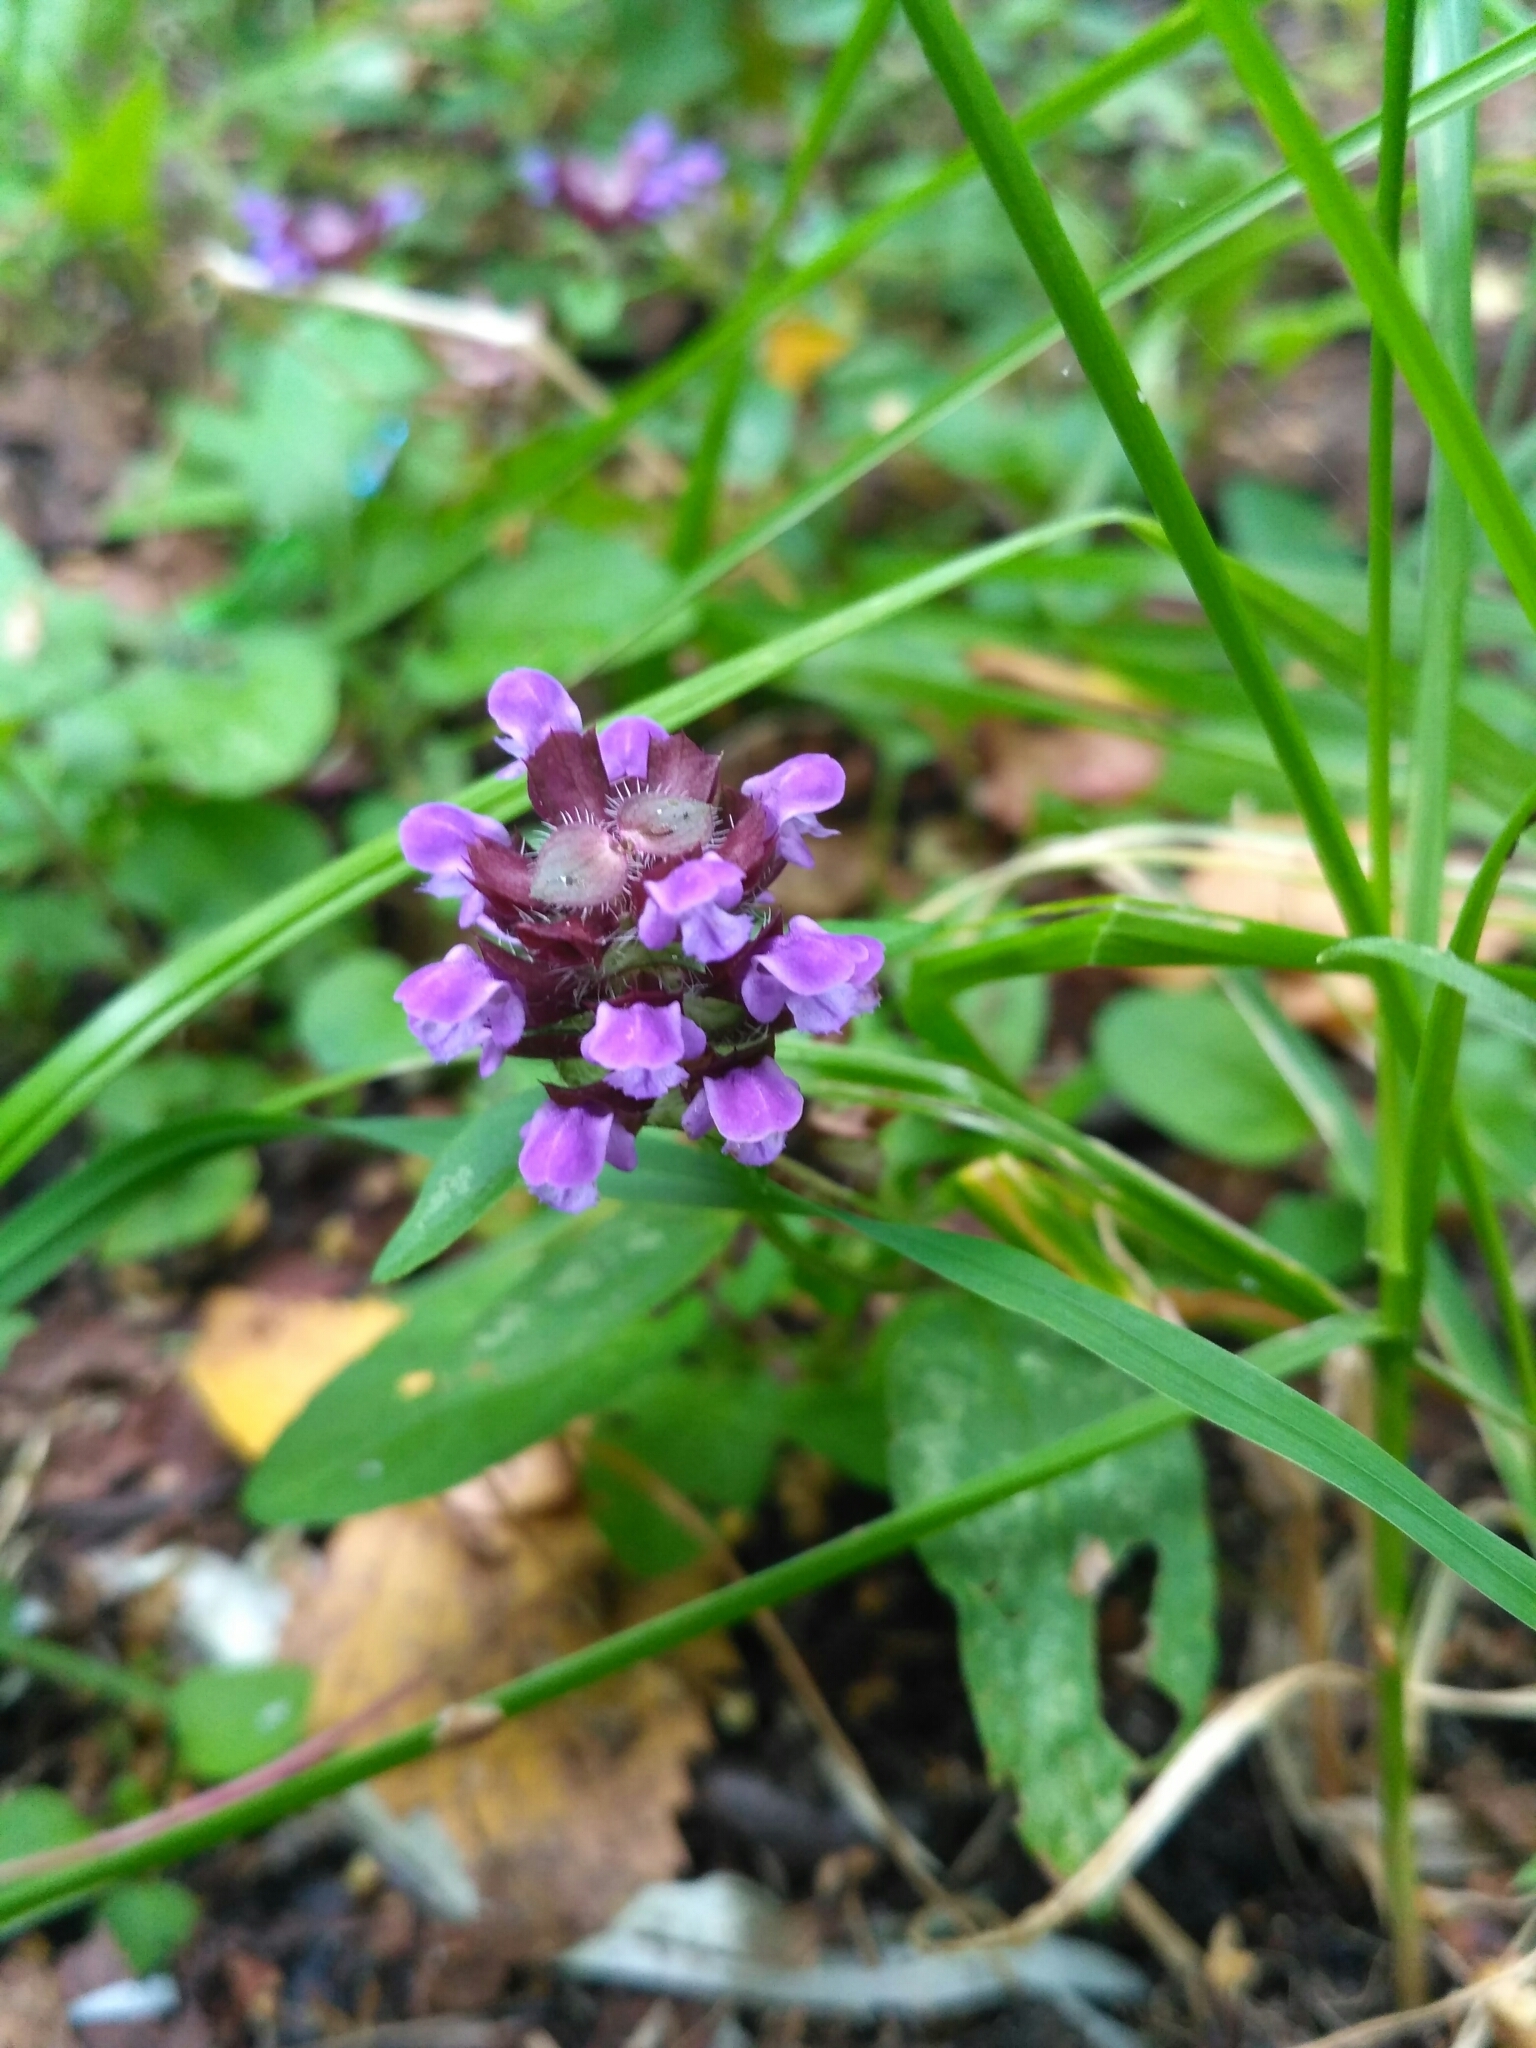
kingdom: Plantae
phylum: Tracheophyta
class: Magnoliopsida
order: Lamiales
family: Lamiaceae
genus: Prunella
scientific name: Prunella vulgaris
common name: Heal-all
